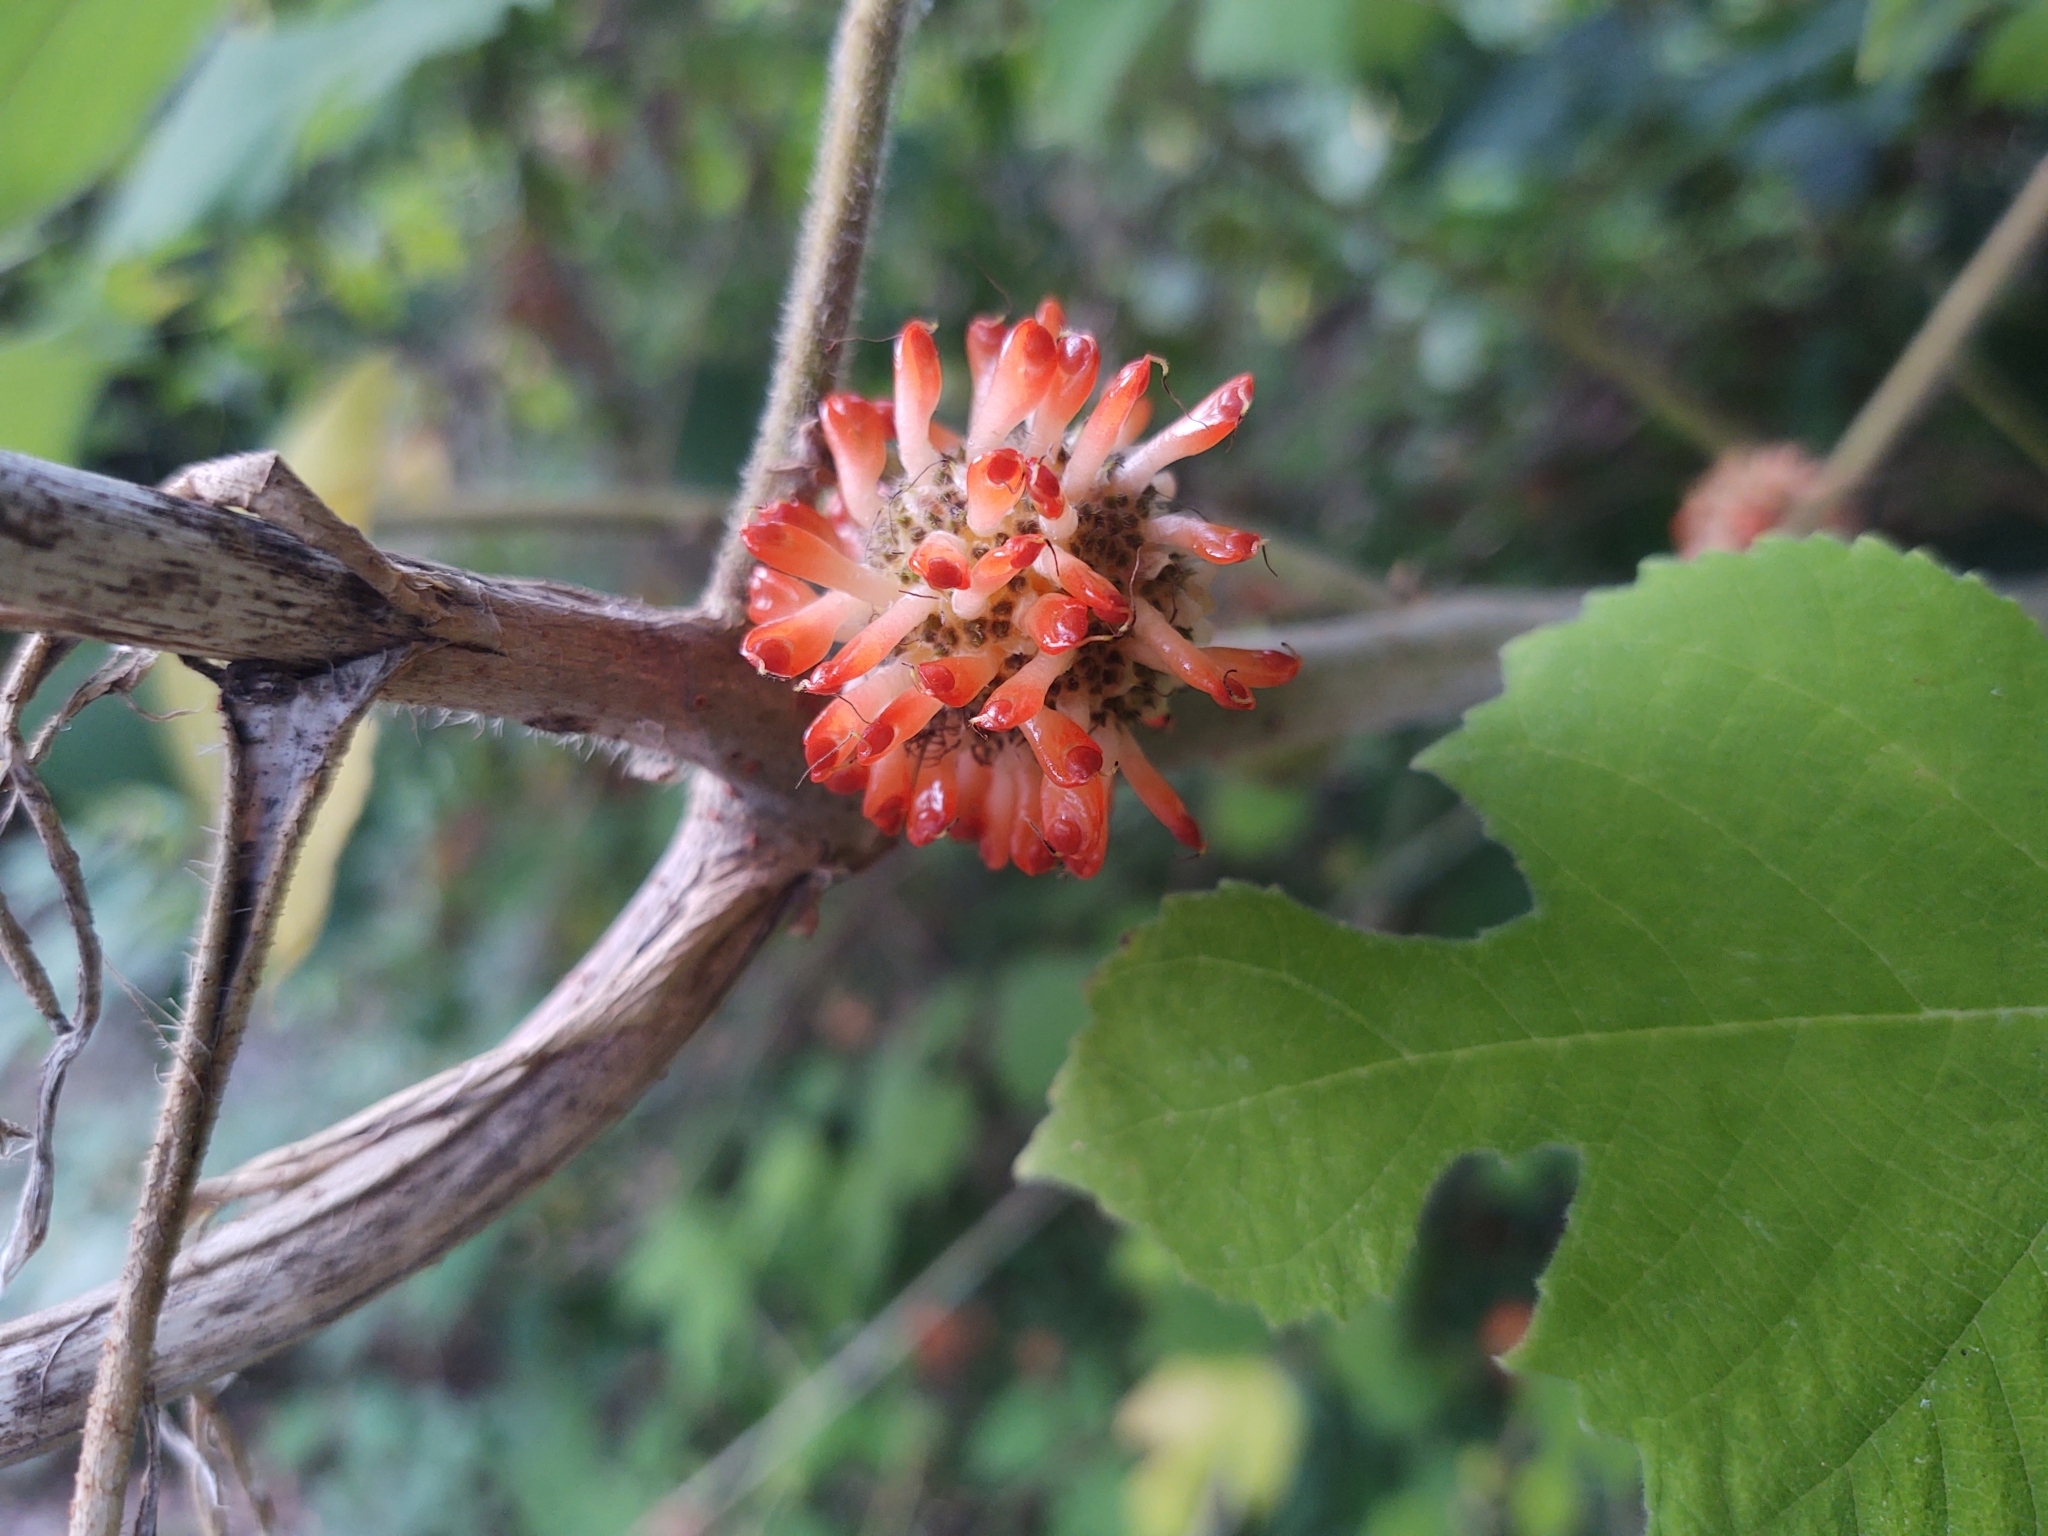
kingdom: Plantae
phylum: Tracheophyta
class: Magnoliopsida
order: Rosales
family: Moraceae
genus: Broussonetia
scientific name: Broussonetia papyrifera
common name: Paper mulberry
